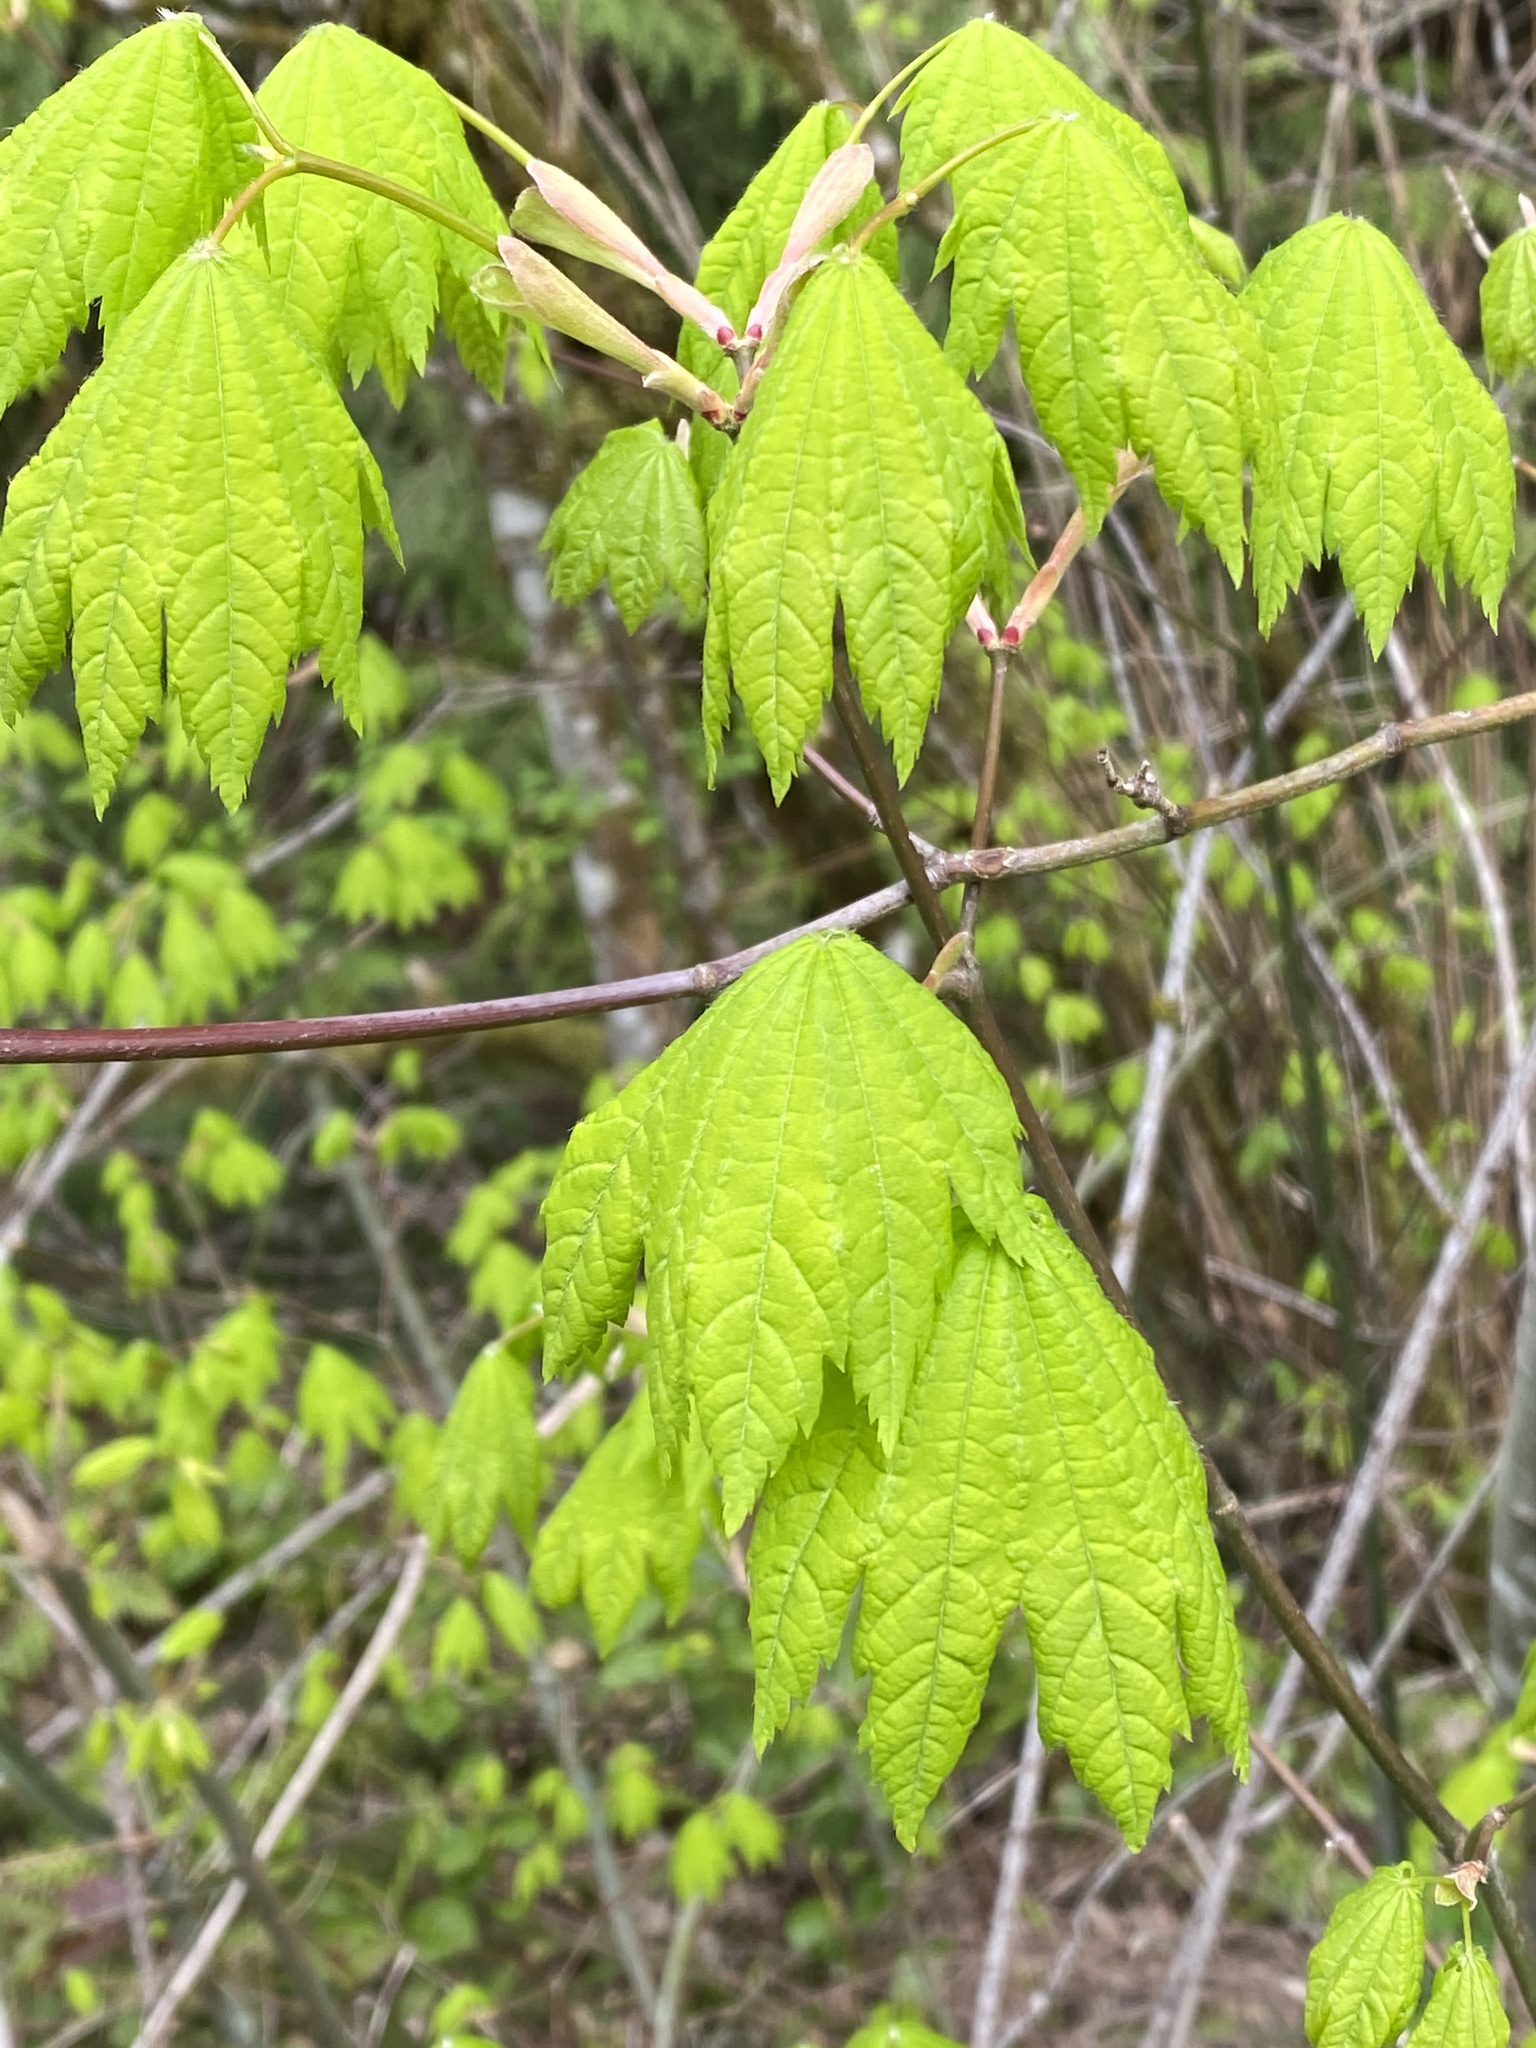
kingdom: Plantae
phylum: Tracheophyta
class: Magnoliopsida
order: Sapindales
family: Sapindaceae
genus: Acer
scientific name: Acer circinatum
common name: Vine maple
